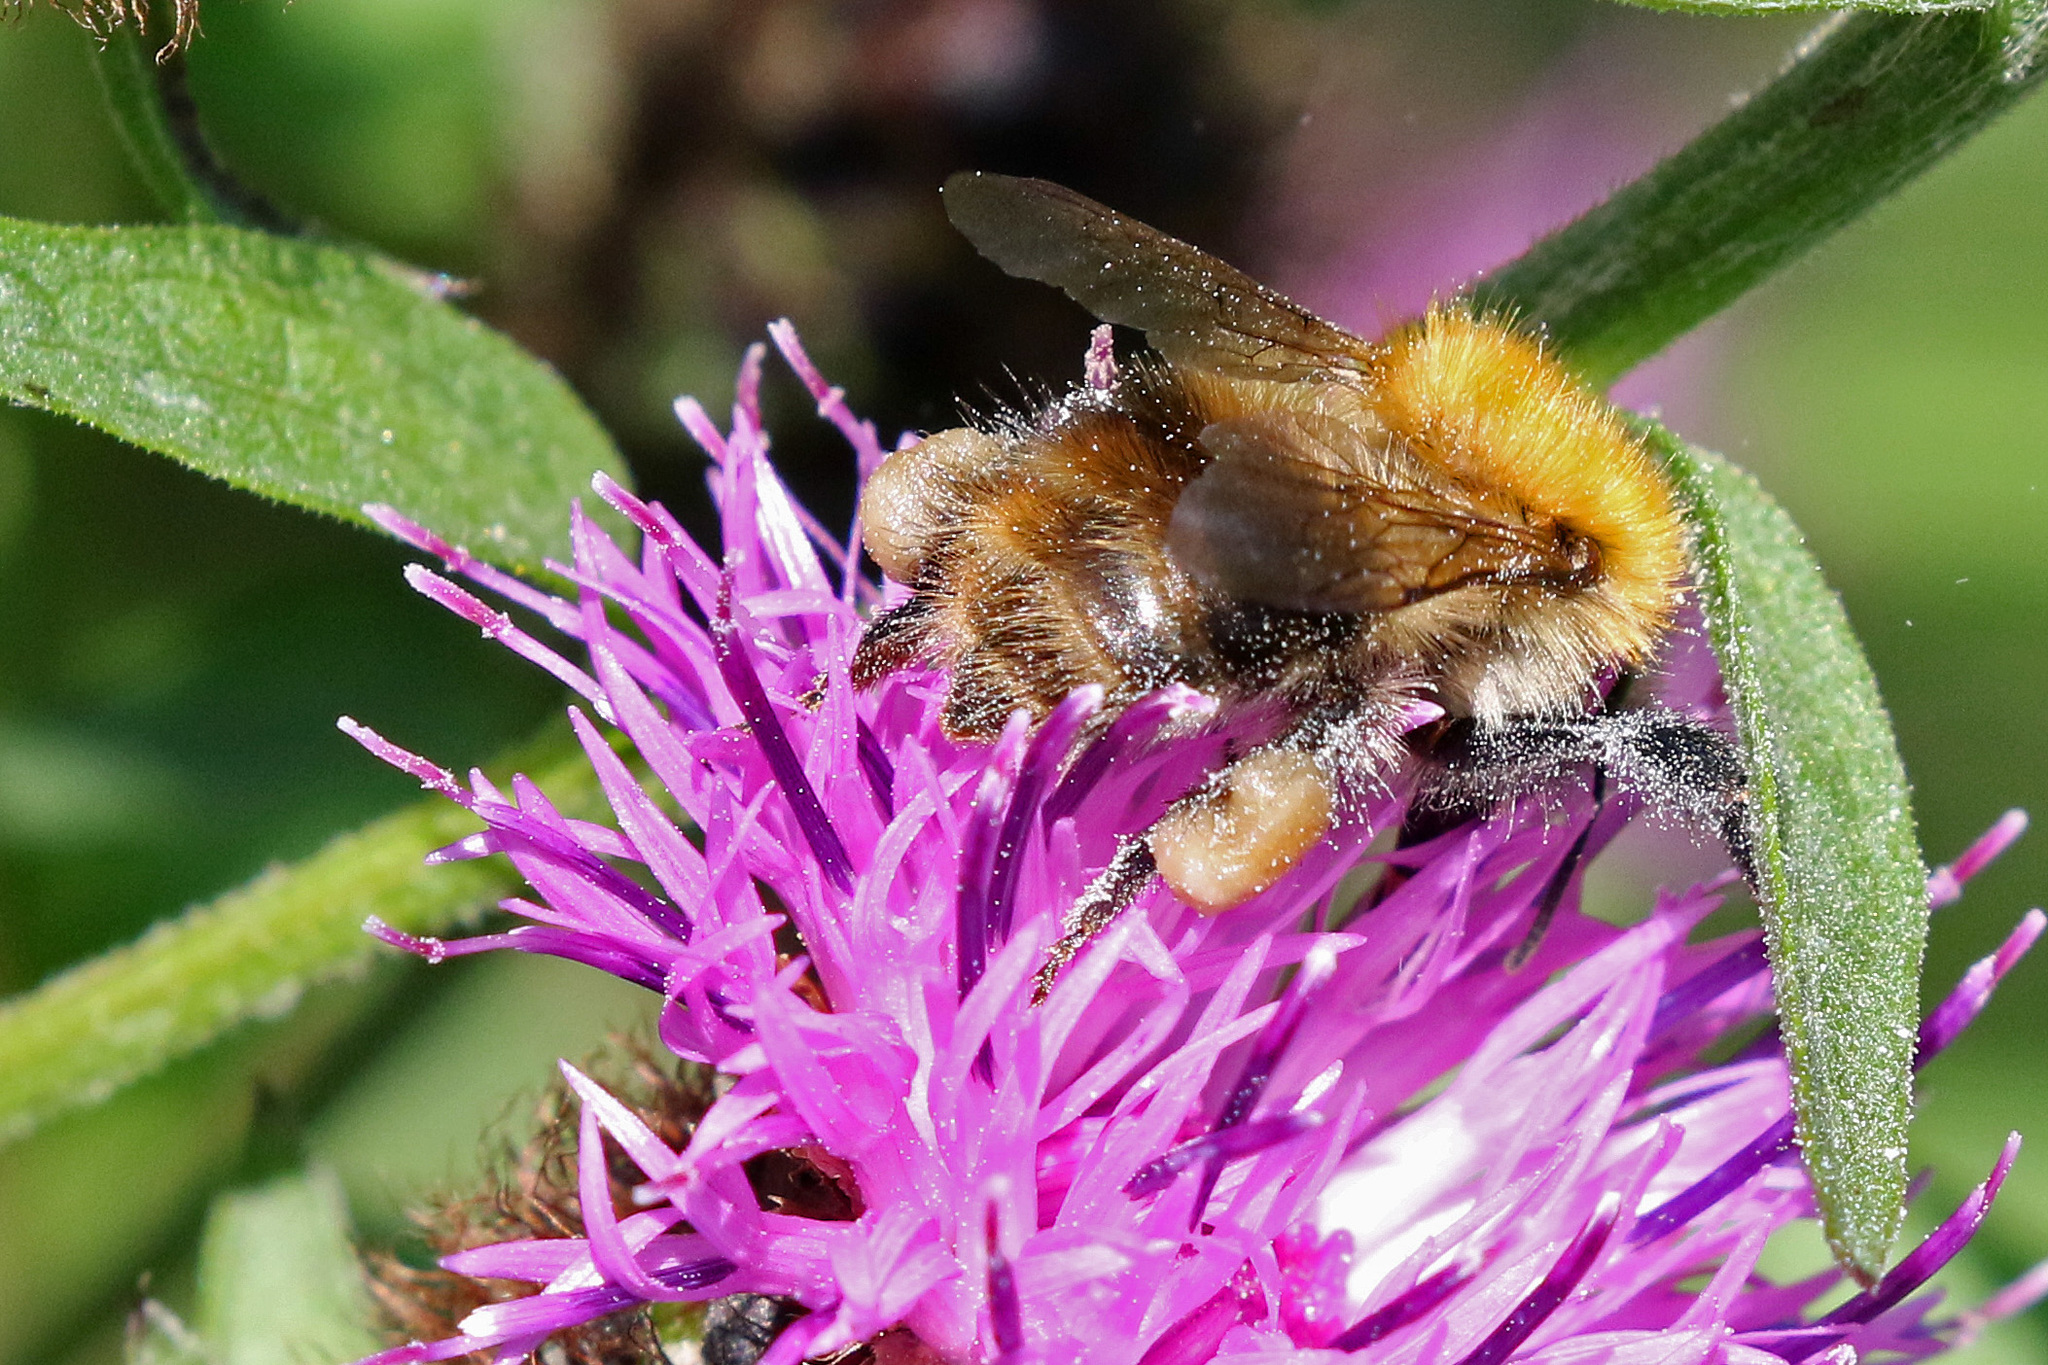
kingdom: Animalia
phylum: Arthropoda
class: Insecta
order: Hymenoptera
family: Apidae
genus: Bombus
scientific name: Bombus pascuorum
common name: Common carder bee
